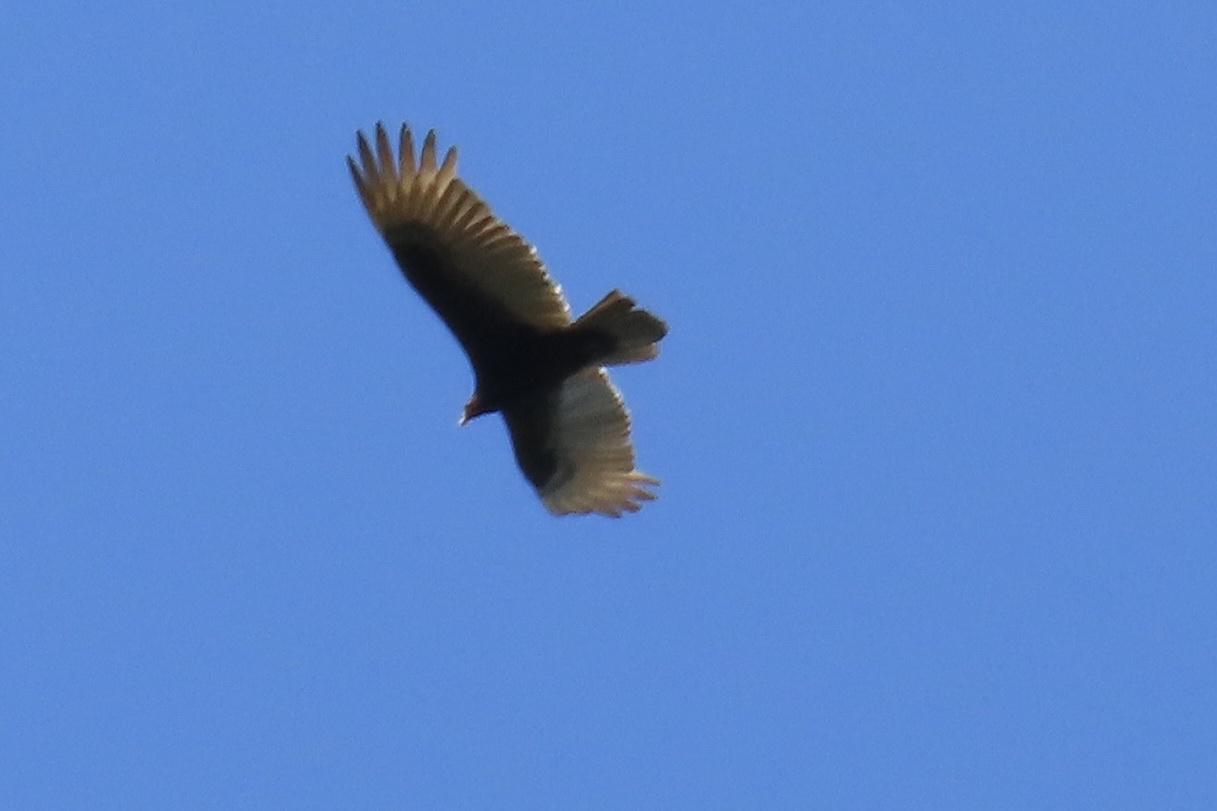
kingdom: Animalia
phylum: Chordata
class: Aves
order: Accipitriformes
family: Cathartidae
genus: Cathartes
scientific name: Cathartes aura
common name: Turkey vulture
